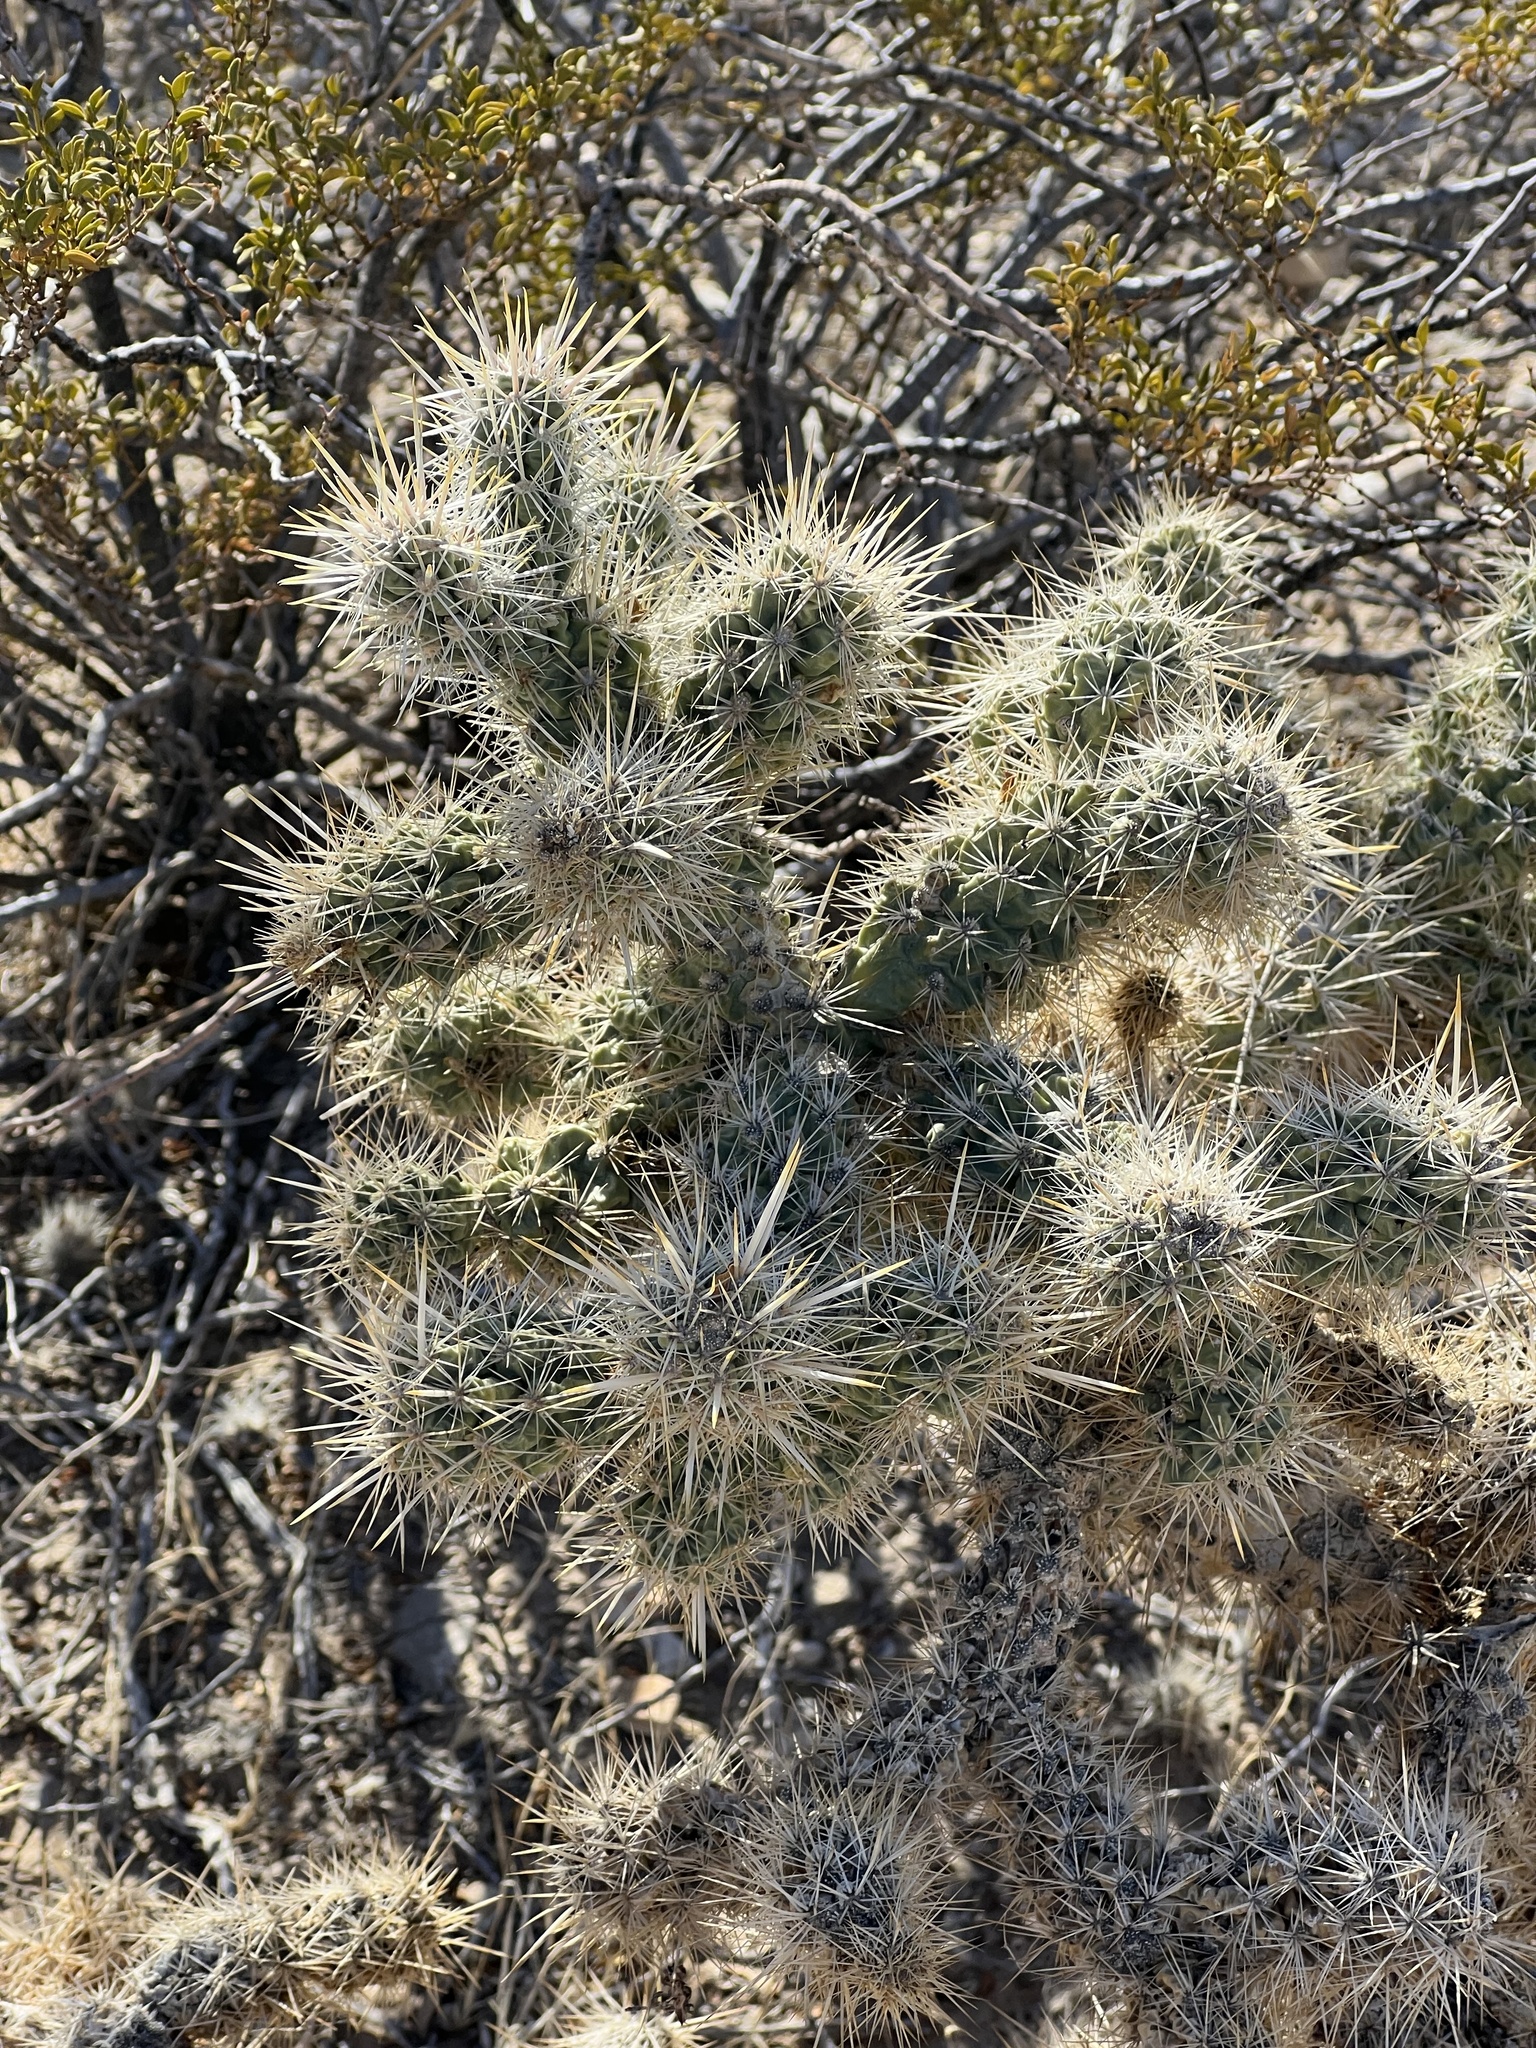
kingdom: Plantae
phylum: Tracheophyta
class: Magnoliopsida
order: Caryophyllales
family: Cactaceae
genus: Cylindropuntia
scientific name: Cylindropuntia echinocarpa
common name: Ground cholla
